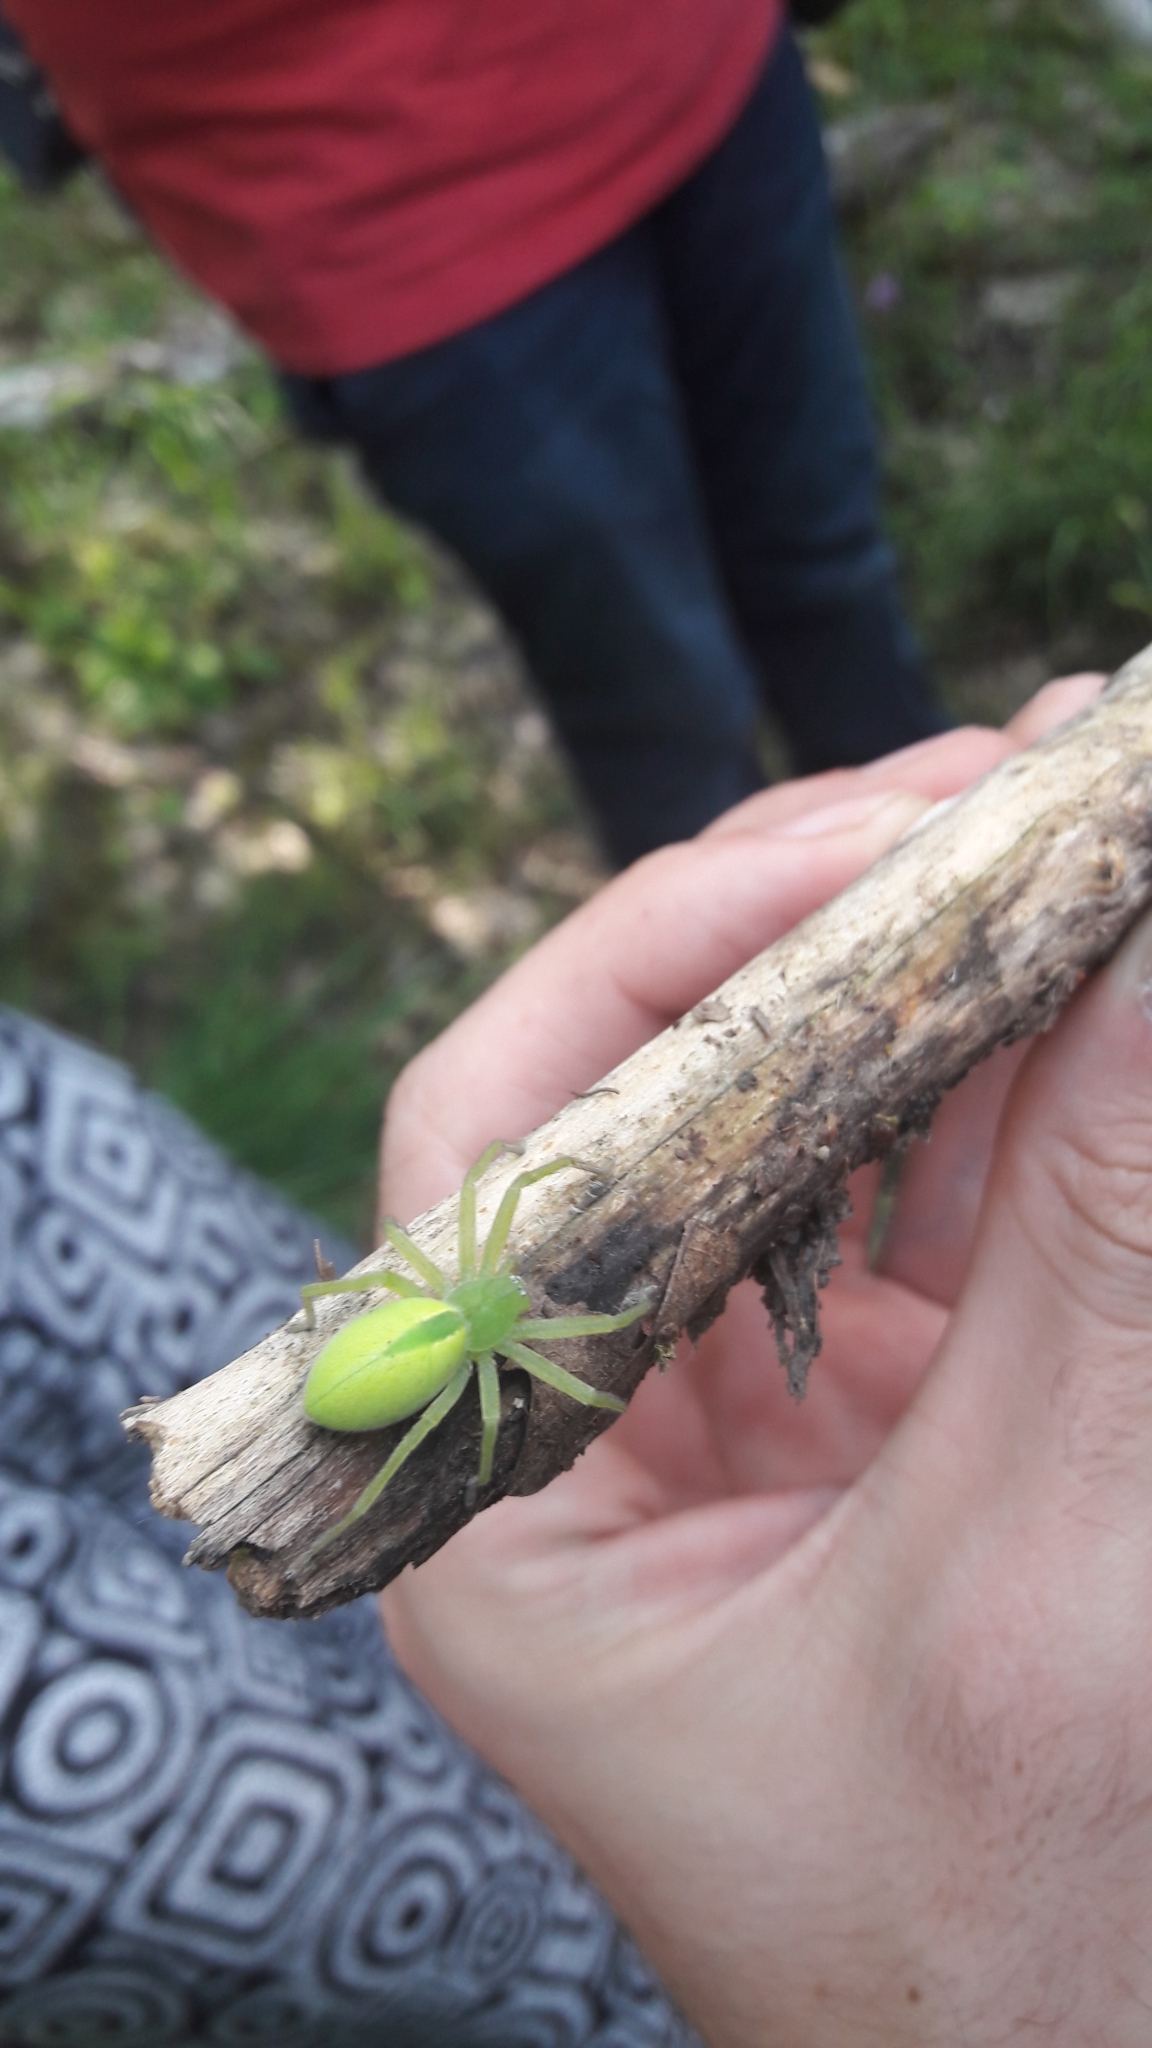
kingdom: Animalia
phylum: Arthropoda
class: Arachnida
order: Araneae
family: Sparassidae
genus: Micrommata
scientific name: Micrommata virescens
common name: Green spider
